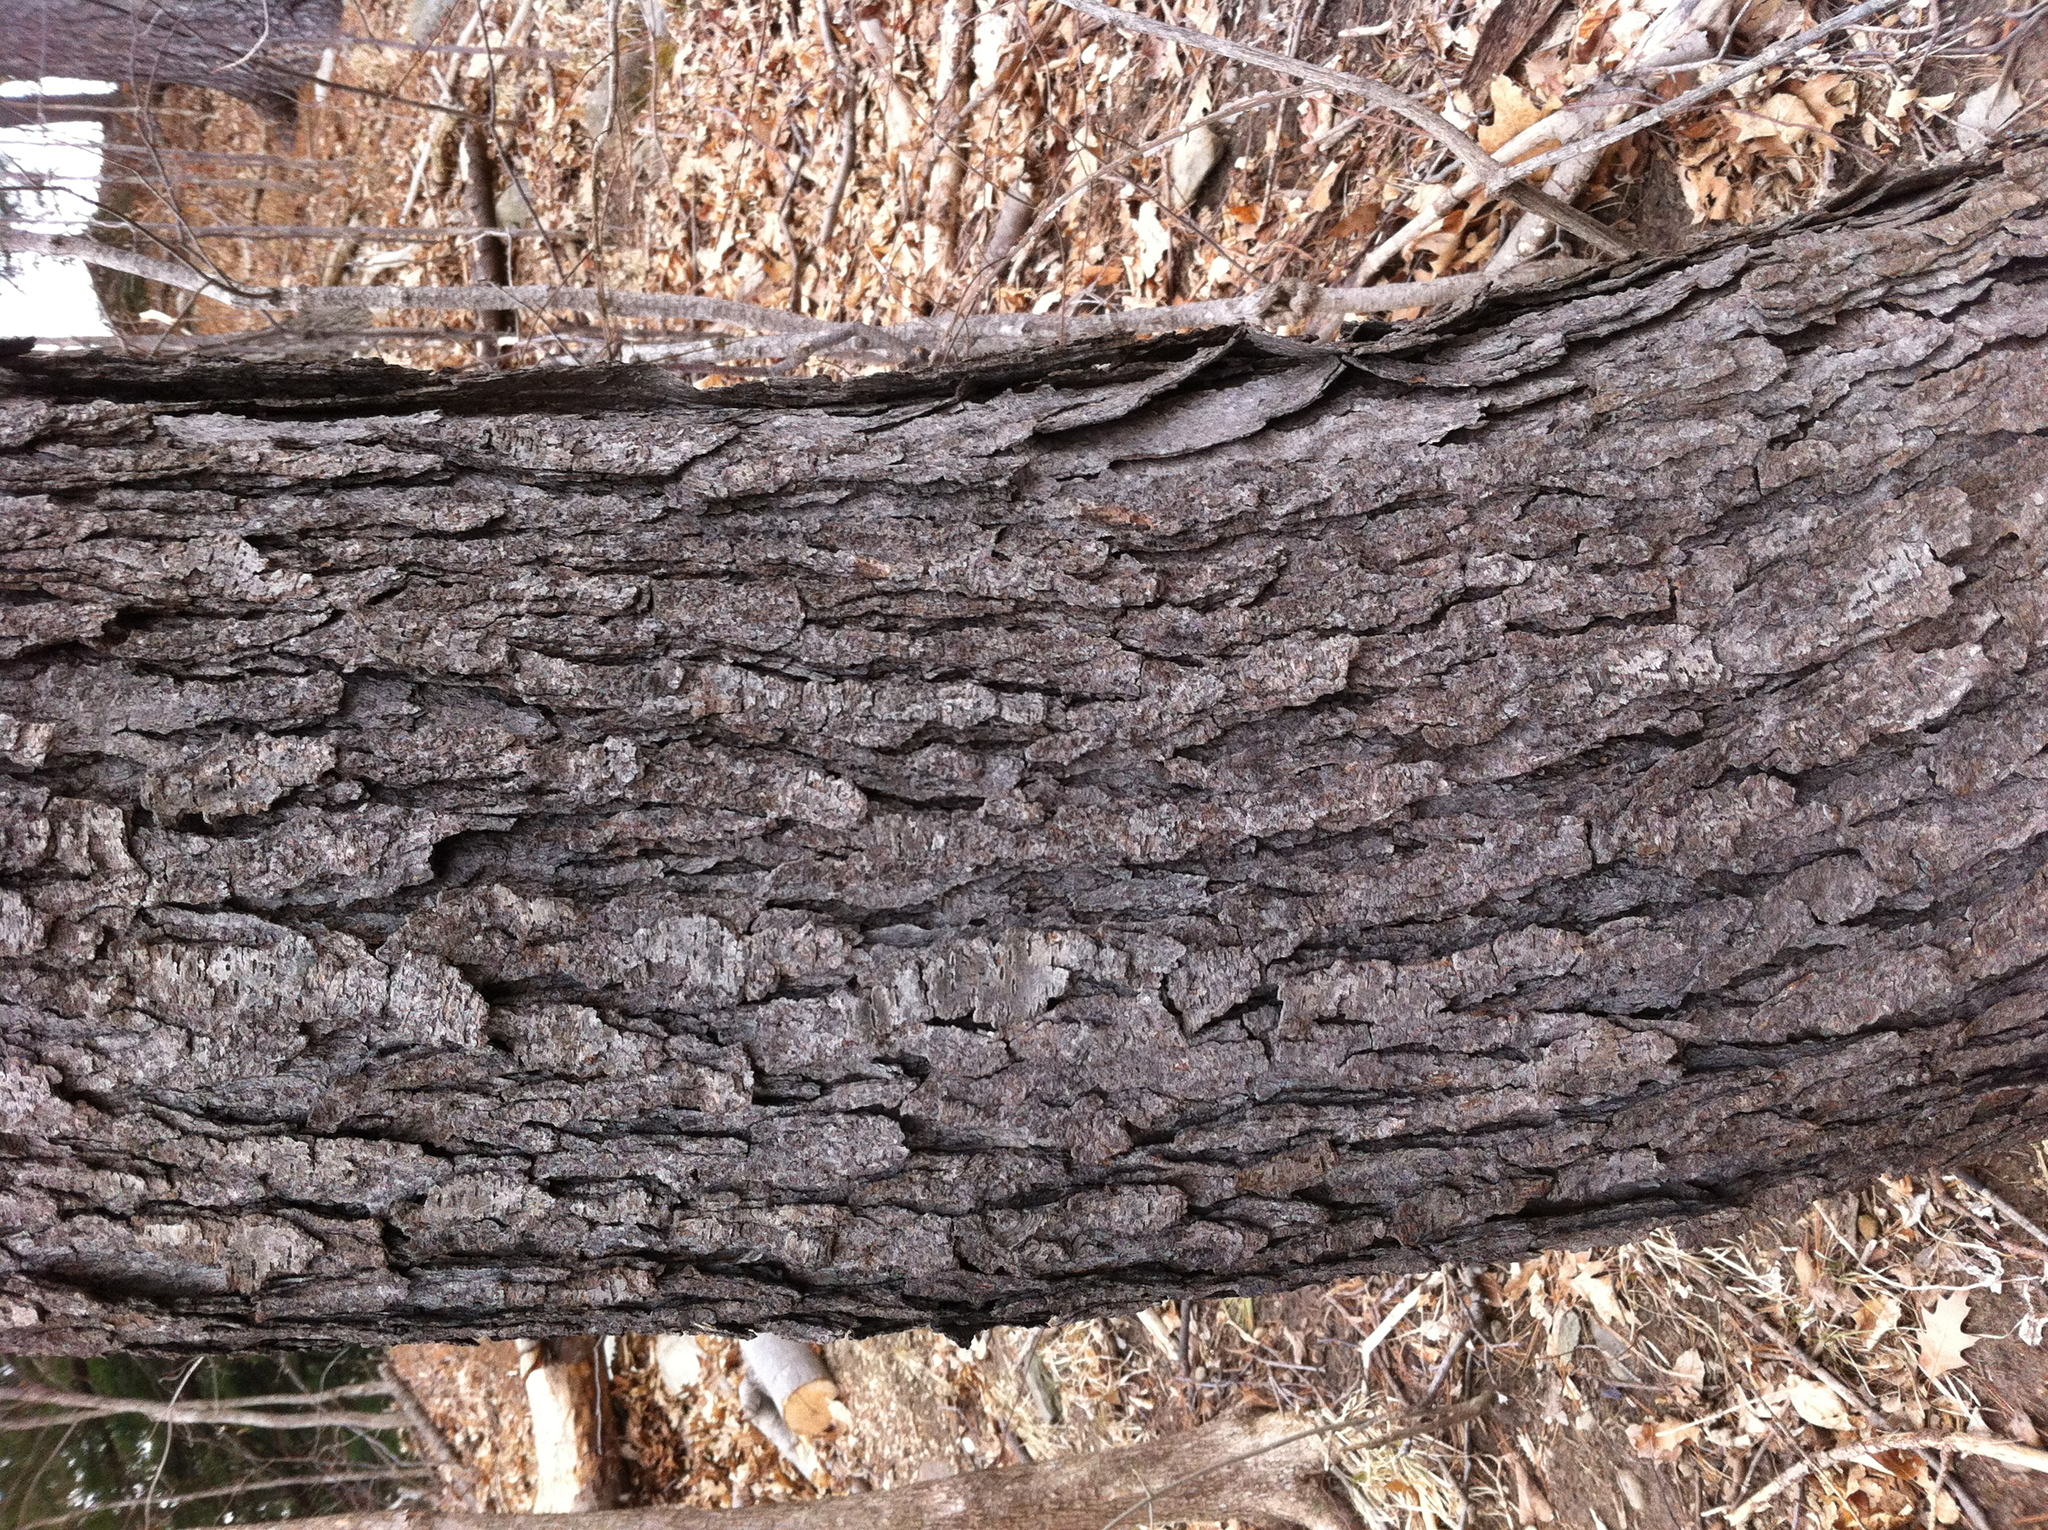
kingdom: Plantae
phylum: Tracheophyta
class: Magnoliopsida
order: Rosales
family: Rosaceae
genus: Prunus
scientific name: Prunus serotina
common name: Black cherry
